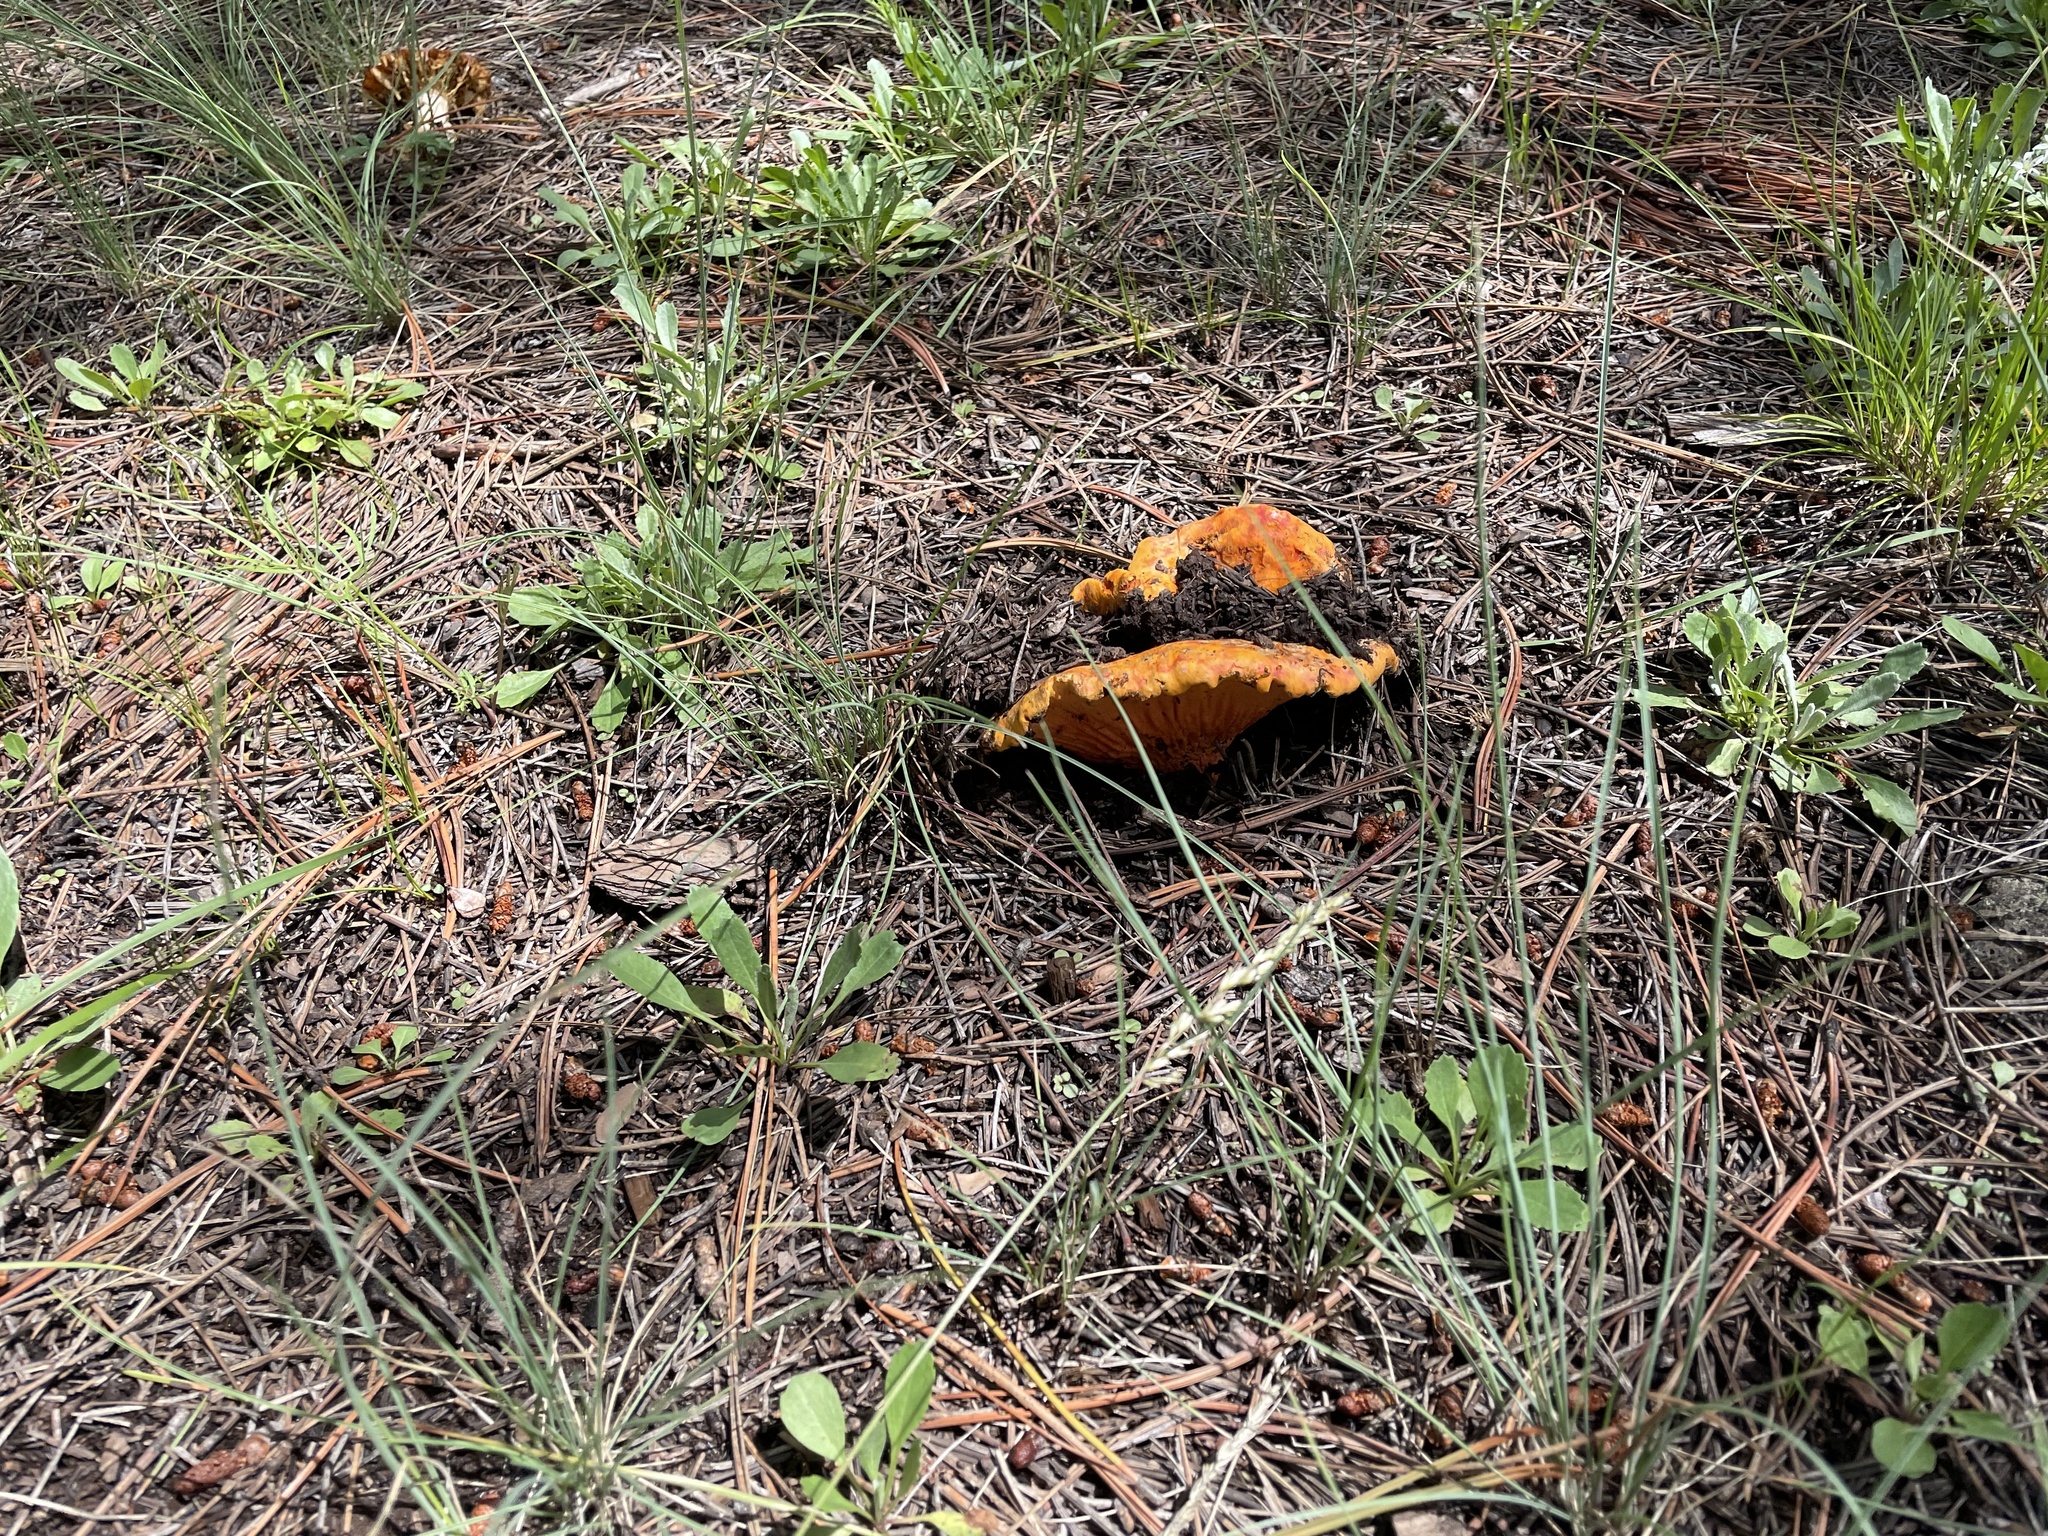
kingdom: Fungi
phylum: Ascomycota
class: Sordariomycetes
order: Hypocreales
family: Hypocreaceae
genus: Hypomyces
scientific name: Hypomyces lactifluorum
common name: Lobster mushroom
